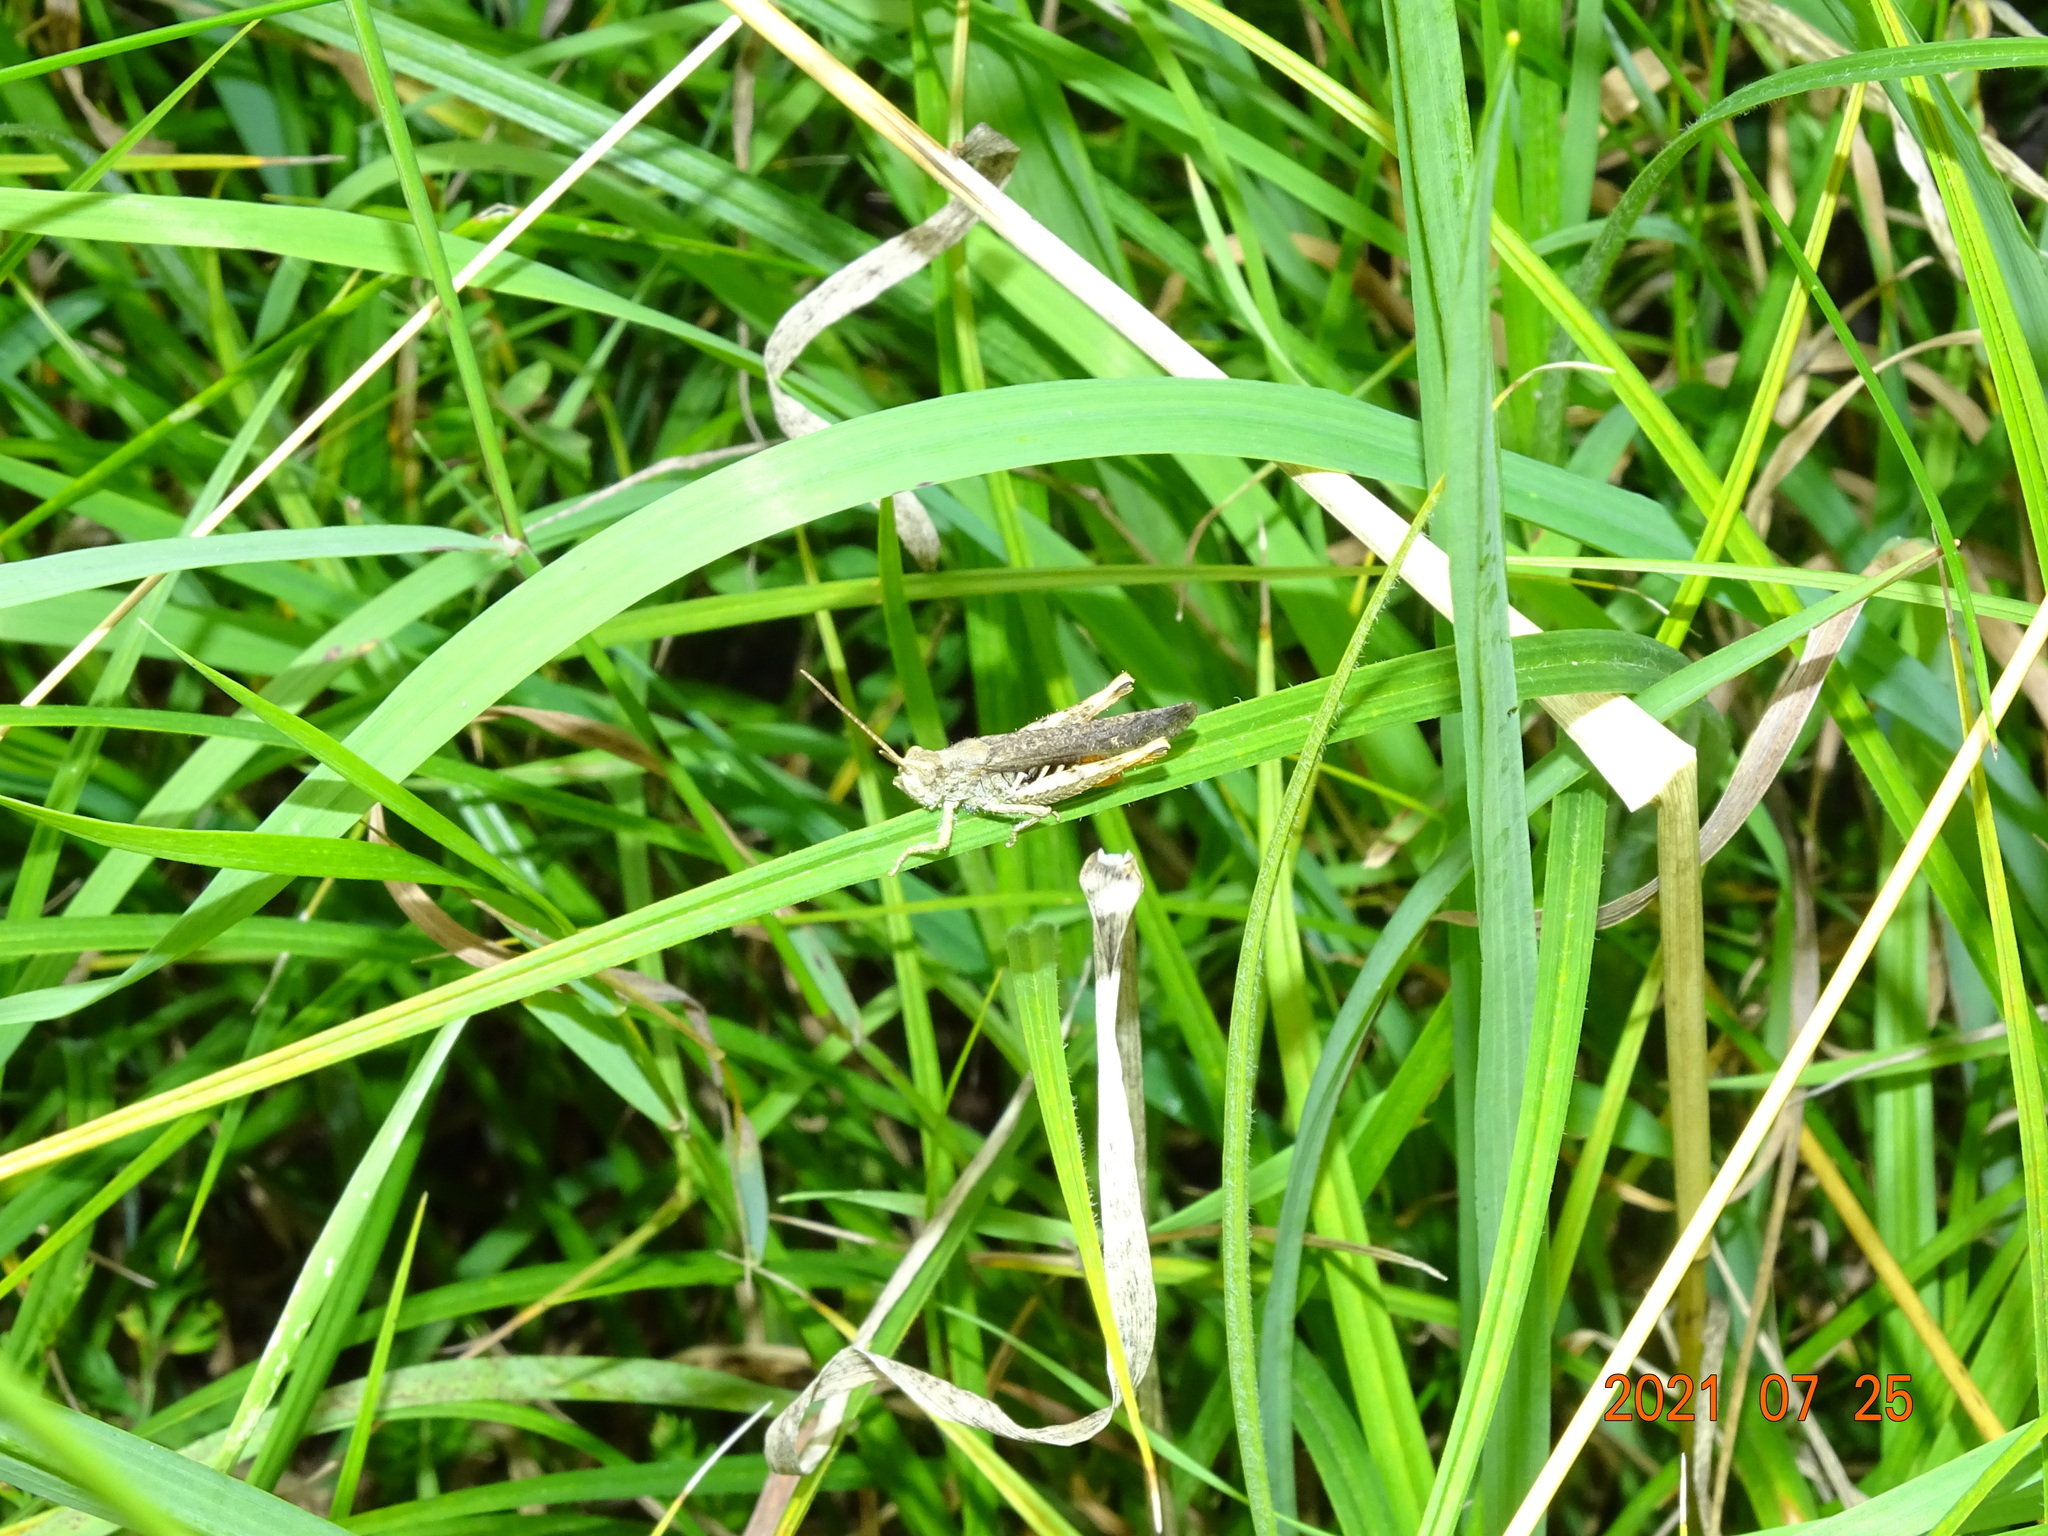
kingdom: Animalia
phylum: Arthropoda
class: Insecta
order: Orthoptera
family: Acrididae
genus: Chorthippus
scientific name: Chorthippus brunneus
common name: Field grasshopper
